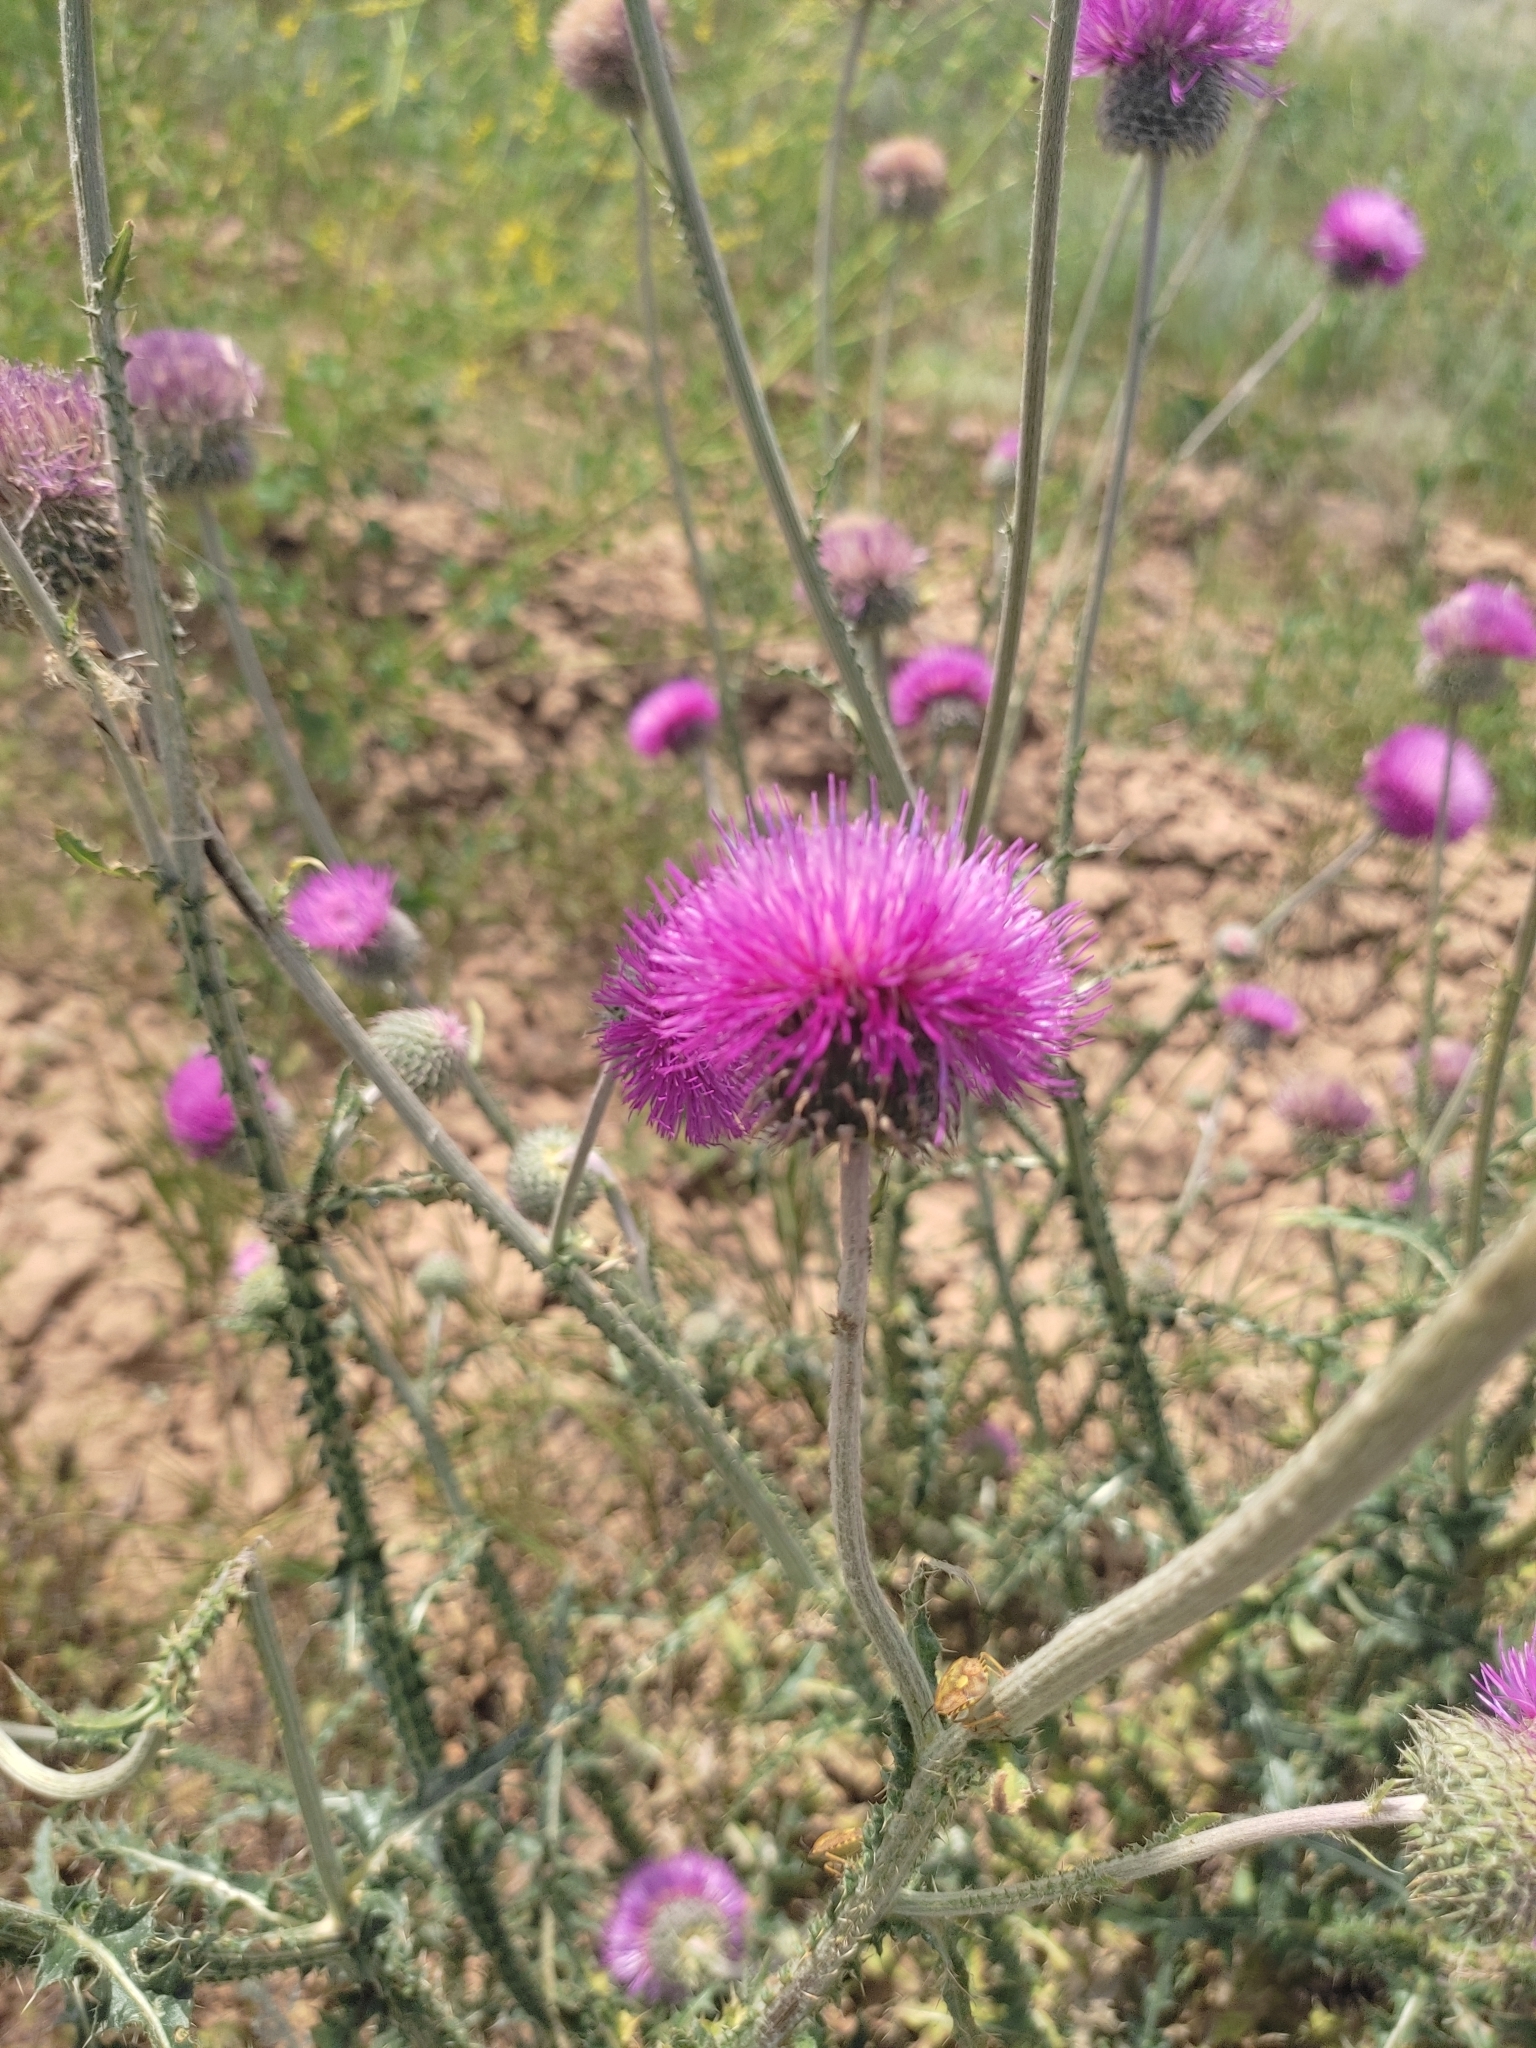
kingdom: Plantae
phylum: Tracheophyta
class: Magnoliopsida
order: Asterales
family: Asteraceae
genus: Carduus
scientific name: Carduus uncinatus
